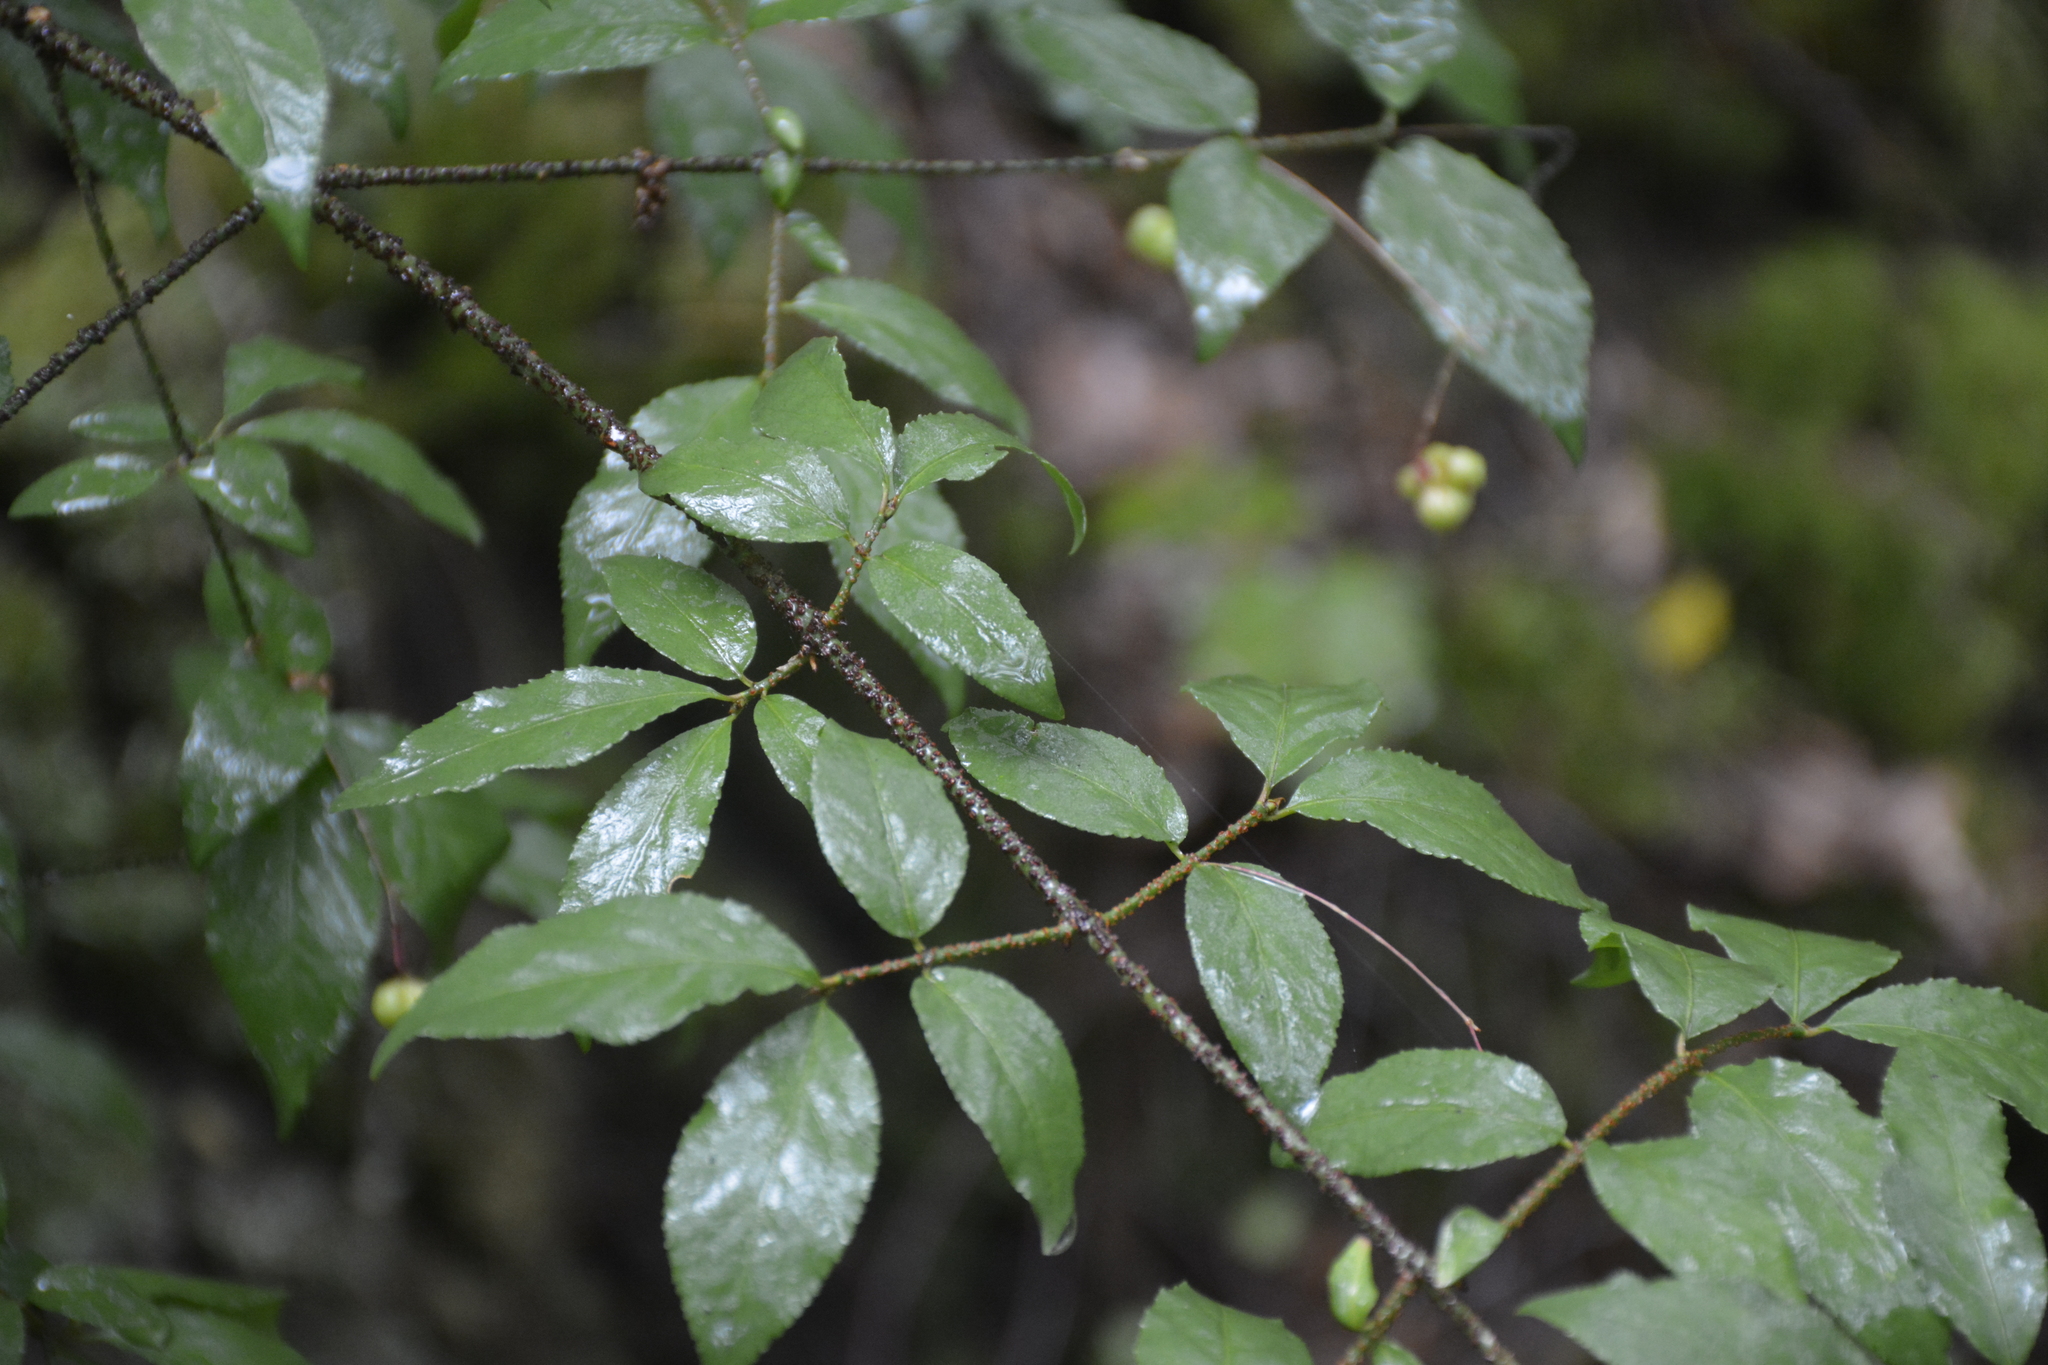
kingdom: Plantae
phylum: Tracheophyta
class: Magnoliopsida
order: Celastrales
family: Celastraceae
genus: Euonymus
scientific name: Euonymus verrucosus
